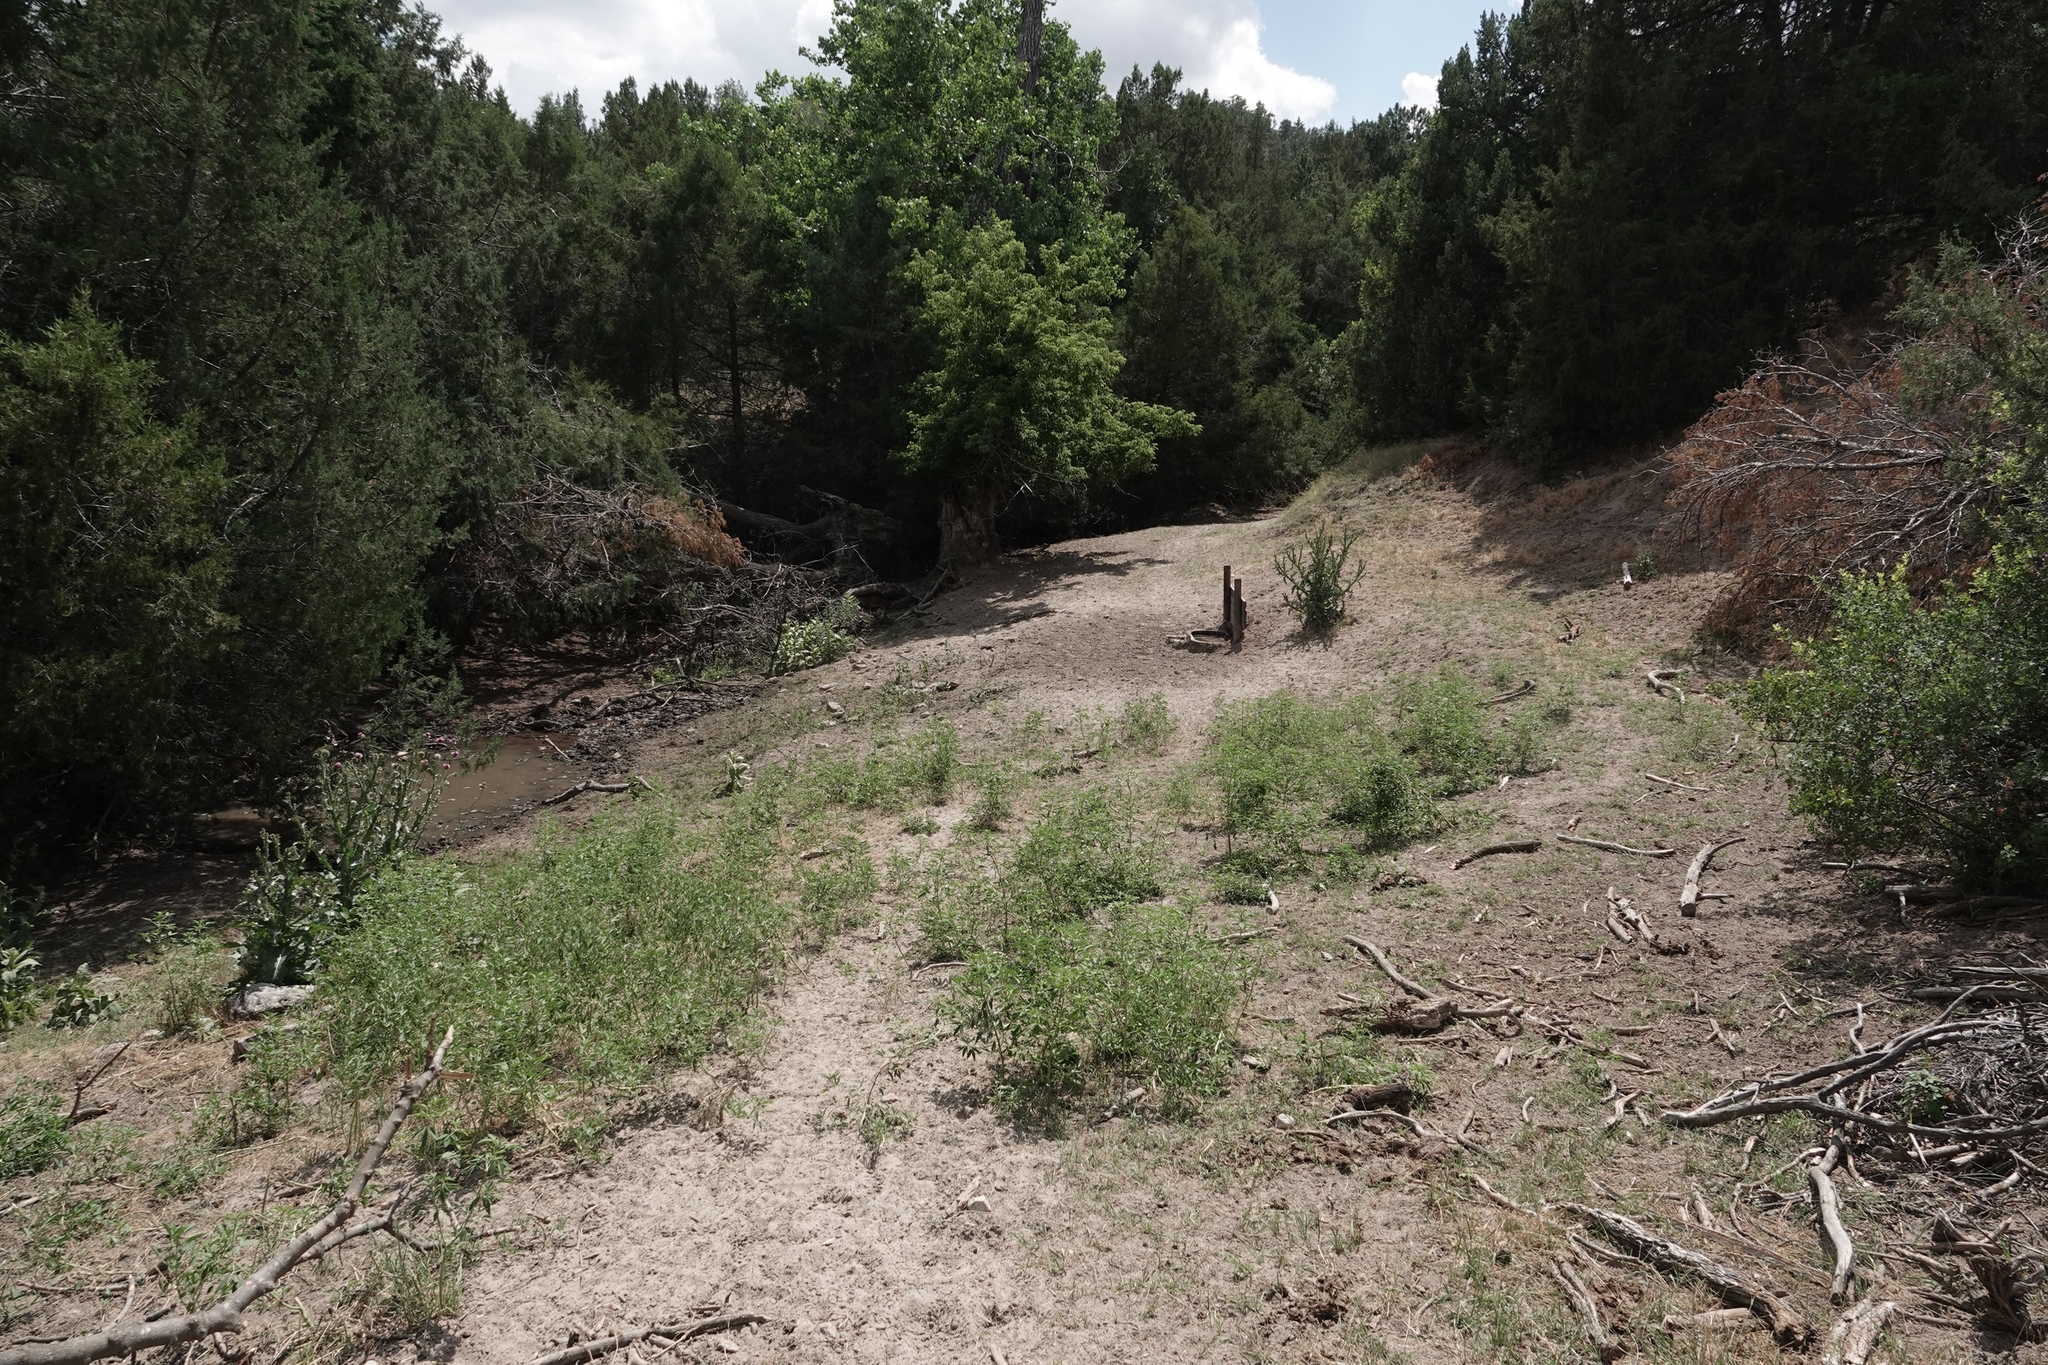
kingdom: Plantae
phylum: Tracheophyta
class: Magnoliopsida
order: Asterales
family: Asteraceae
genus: Onopordum
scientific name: Onopordum acanthium
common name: Scotch thistle
